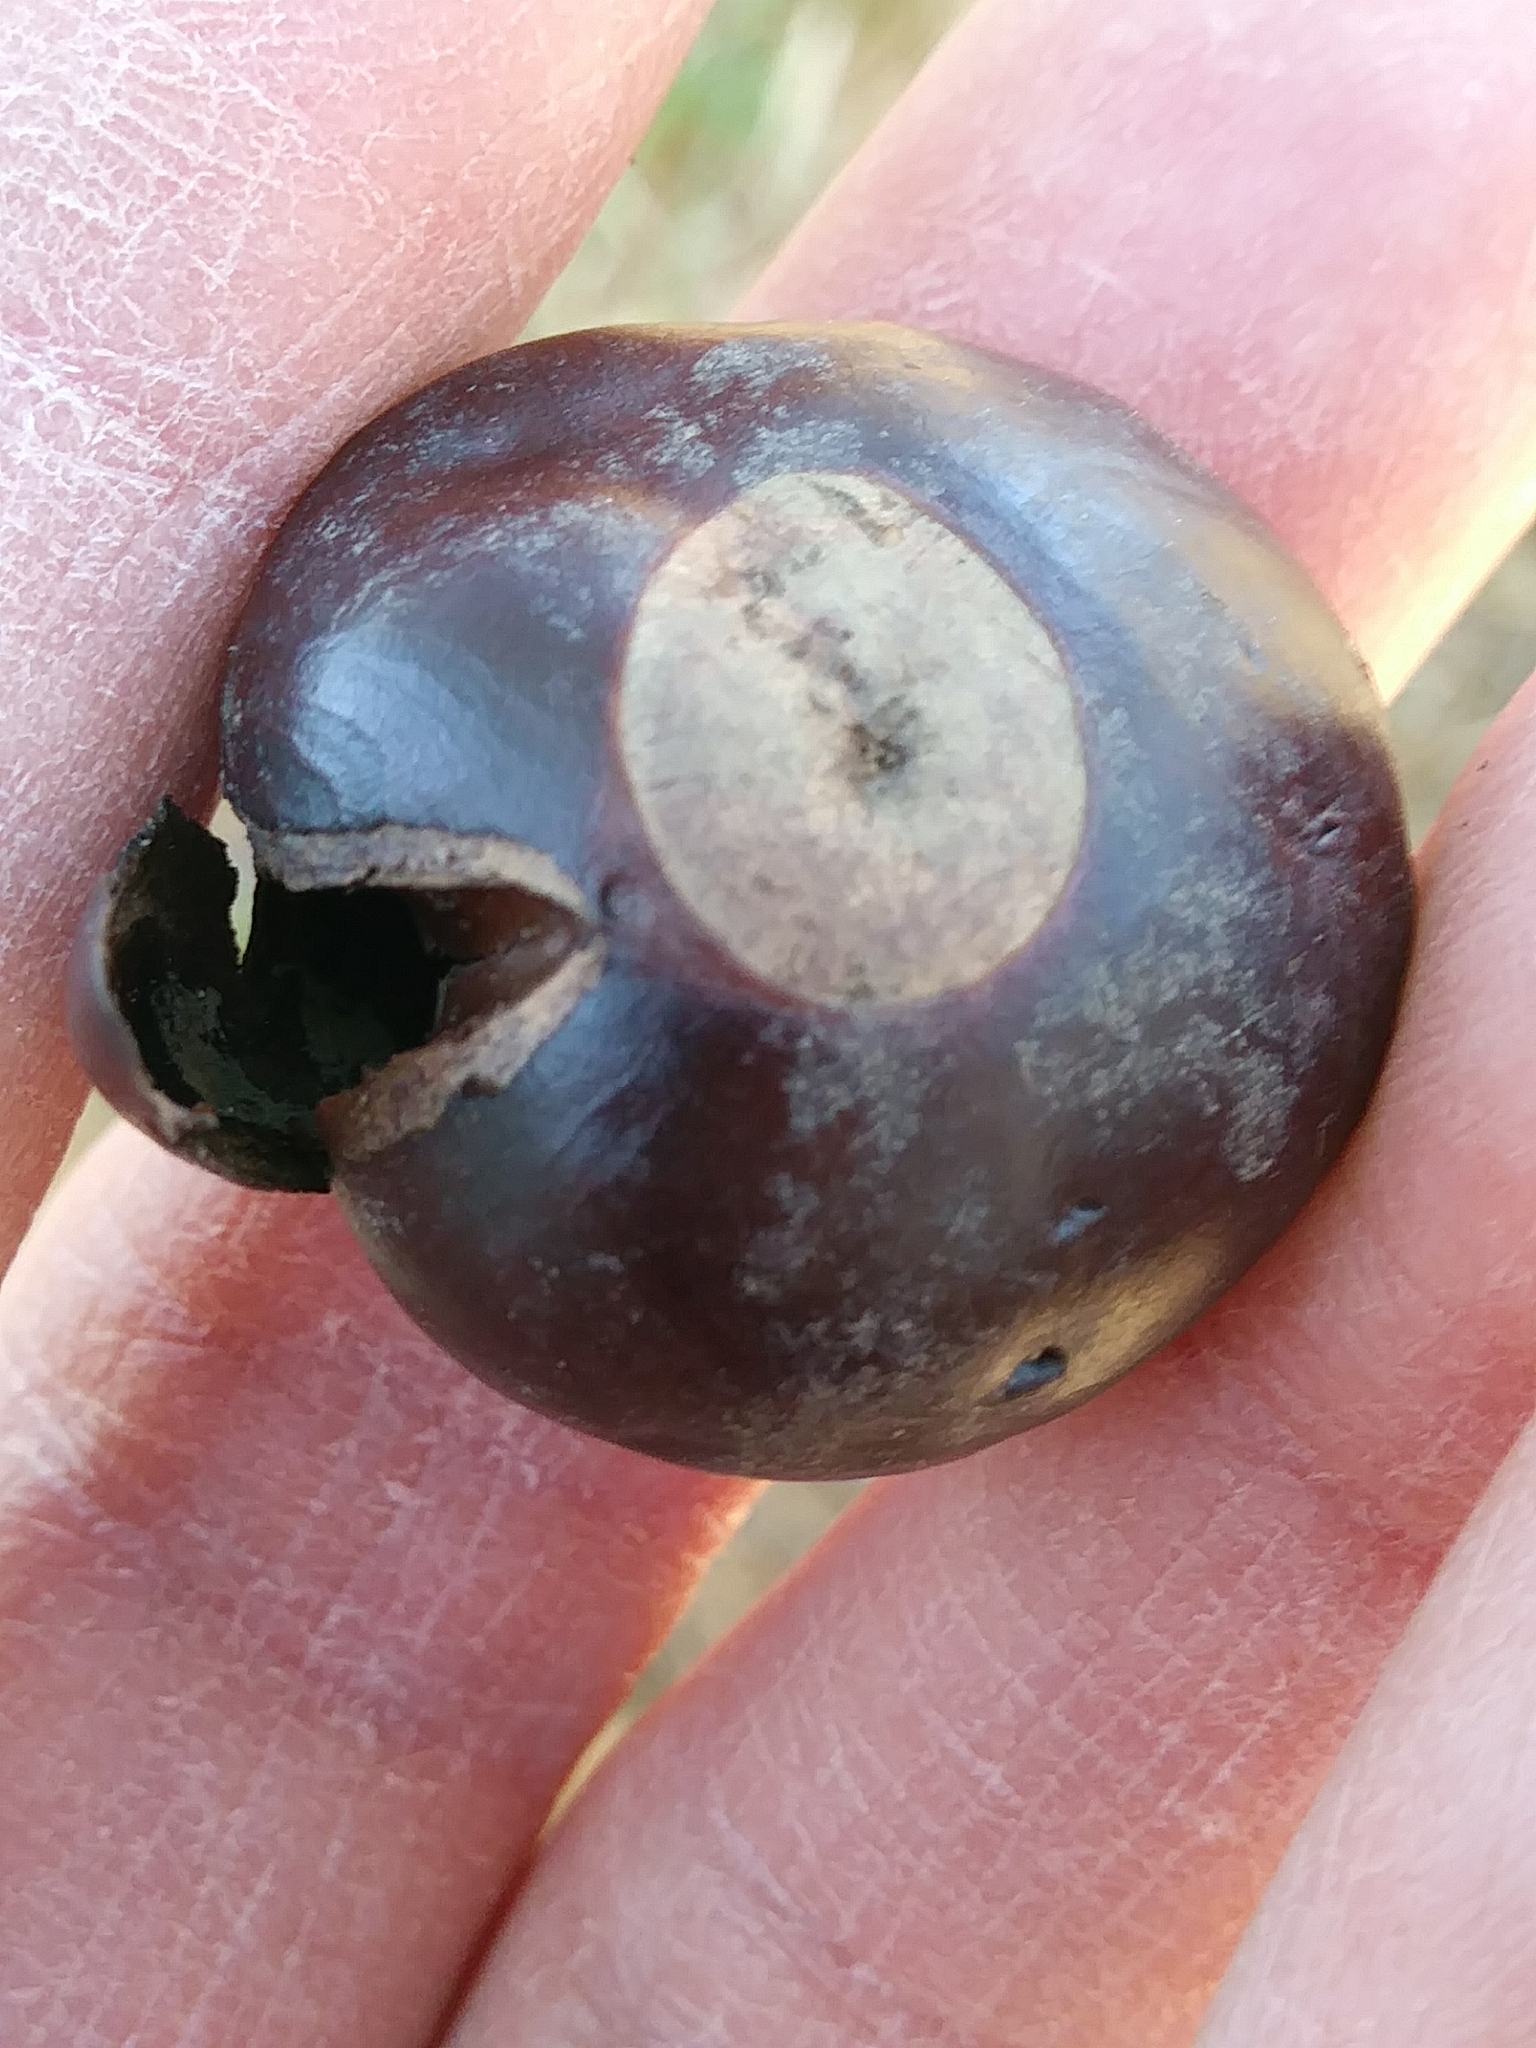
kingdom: Plantae
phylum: Tracheophyta
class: Magnoliopsida
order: Sapindales
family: Sapindaceae
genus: Aesculus
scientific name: Aesculus hippocastanum
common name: Horse-chestnut
